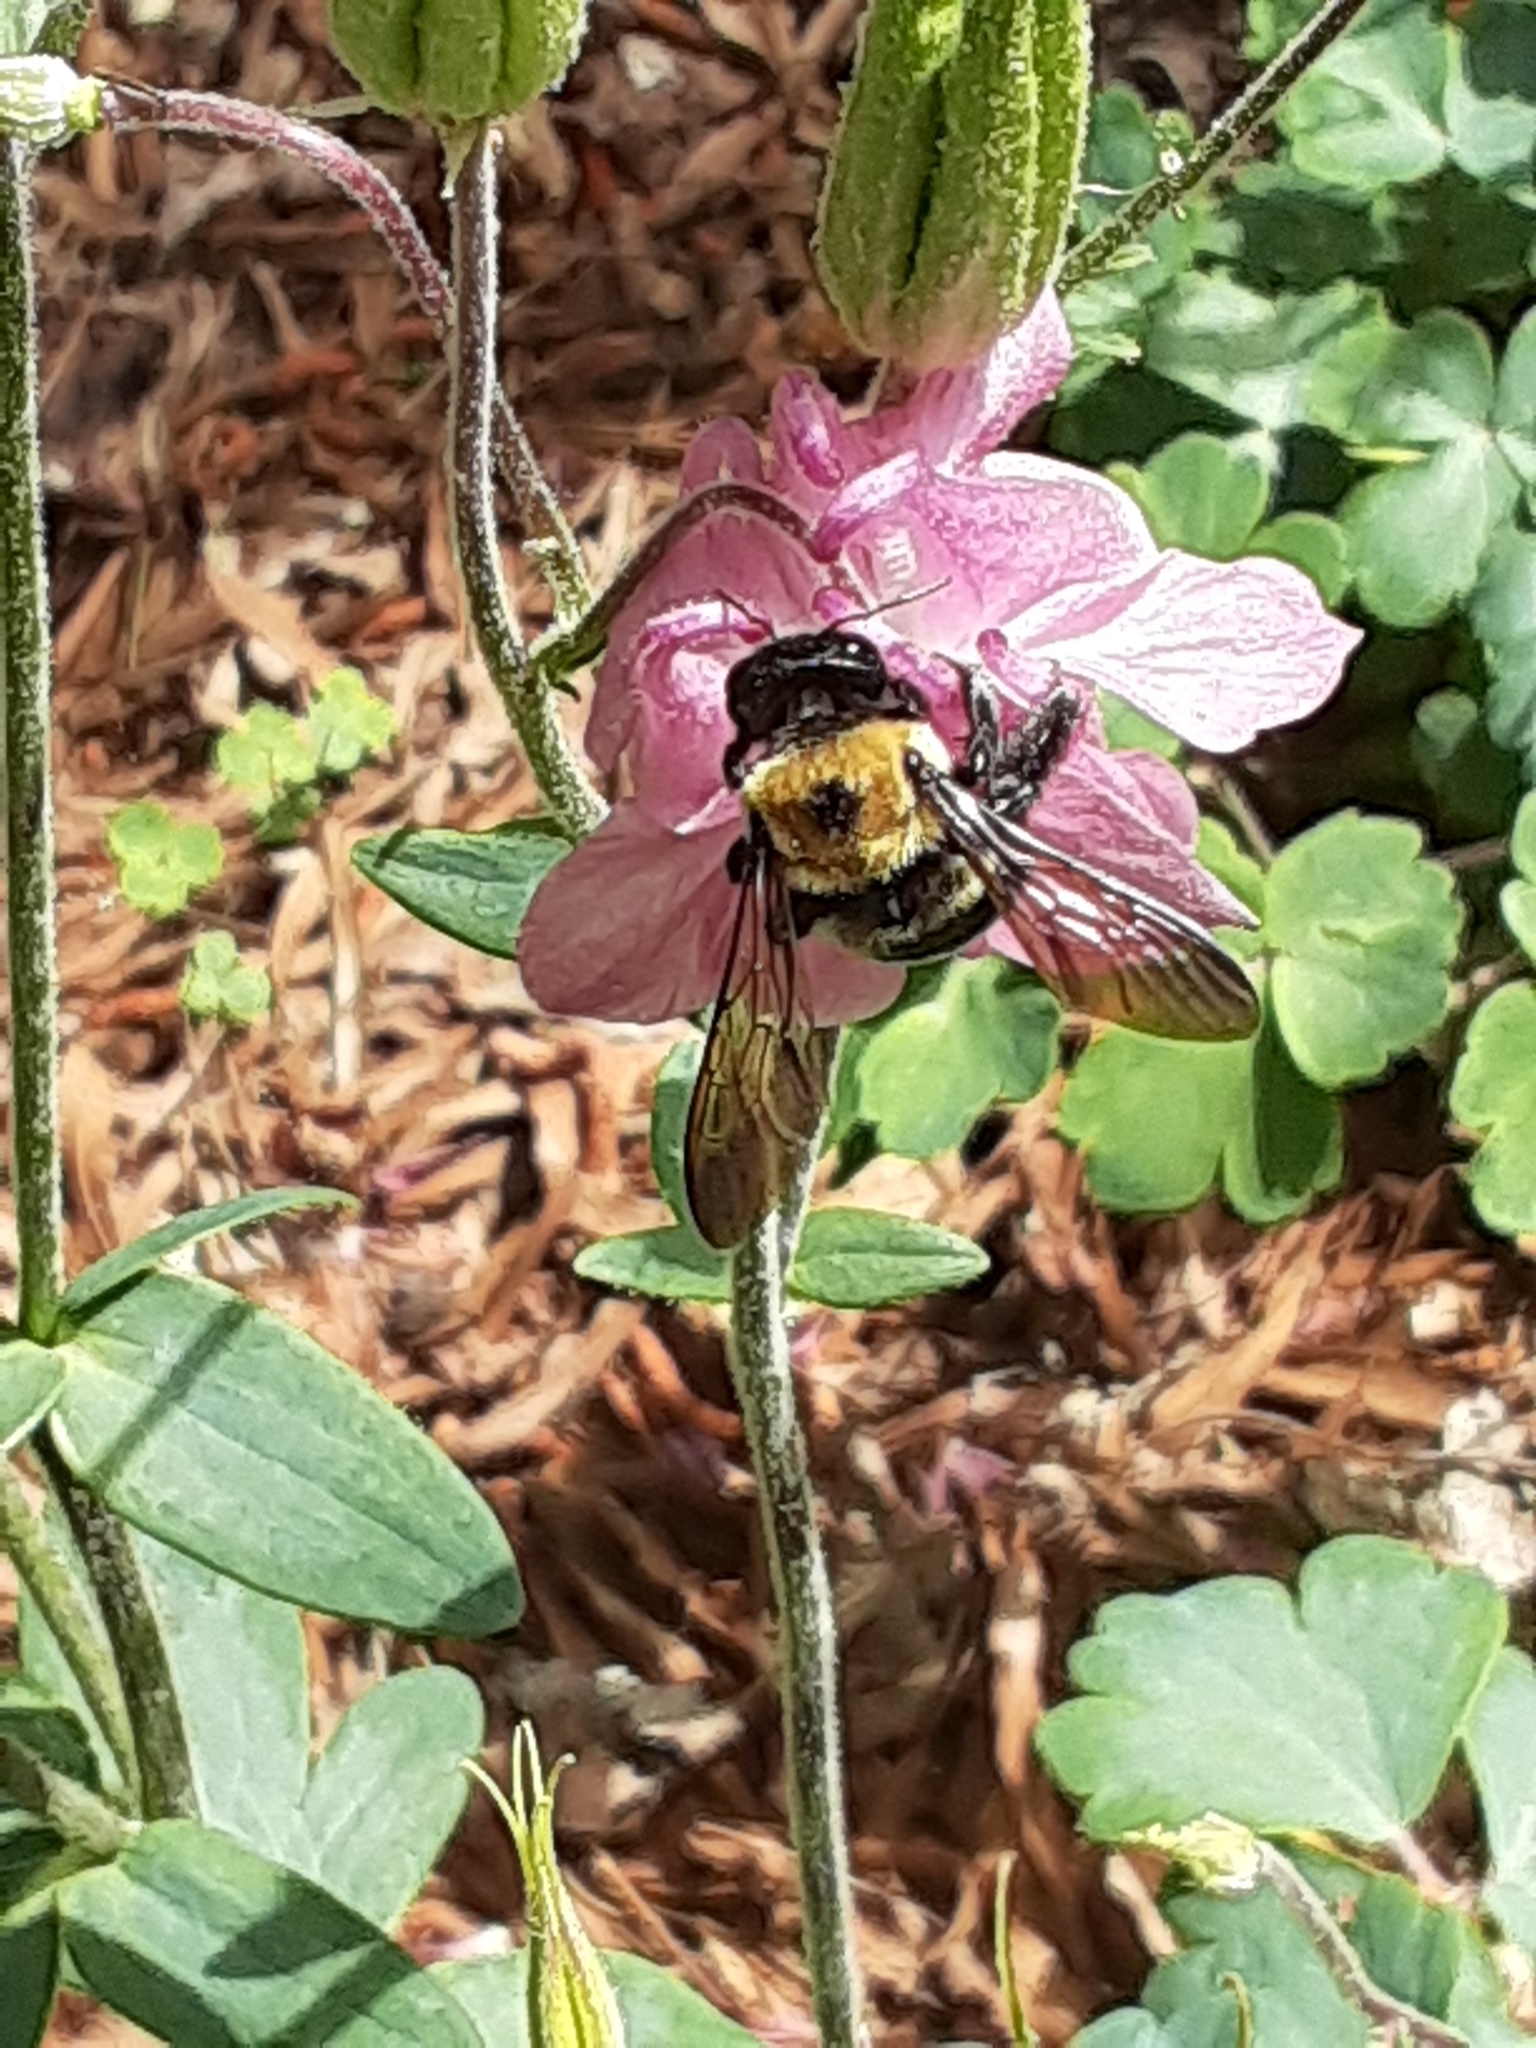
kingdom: Animalia
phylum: Arthropoda
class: Insecta
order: Hymenoptera
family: Apidae
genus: Xylocopa
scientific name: Xylocopa virginica
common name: Carpenter bee
